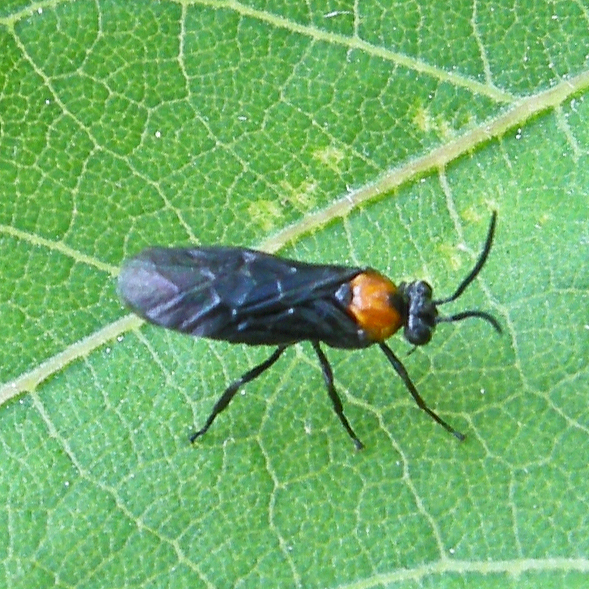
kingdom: Animalia
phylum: Arthropoda
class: Insecta
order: Hymenoptera
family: Argidae
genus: Atomacera
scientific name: Atomacera
